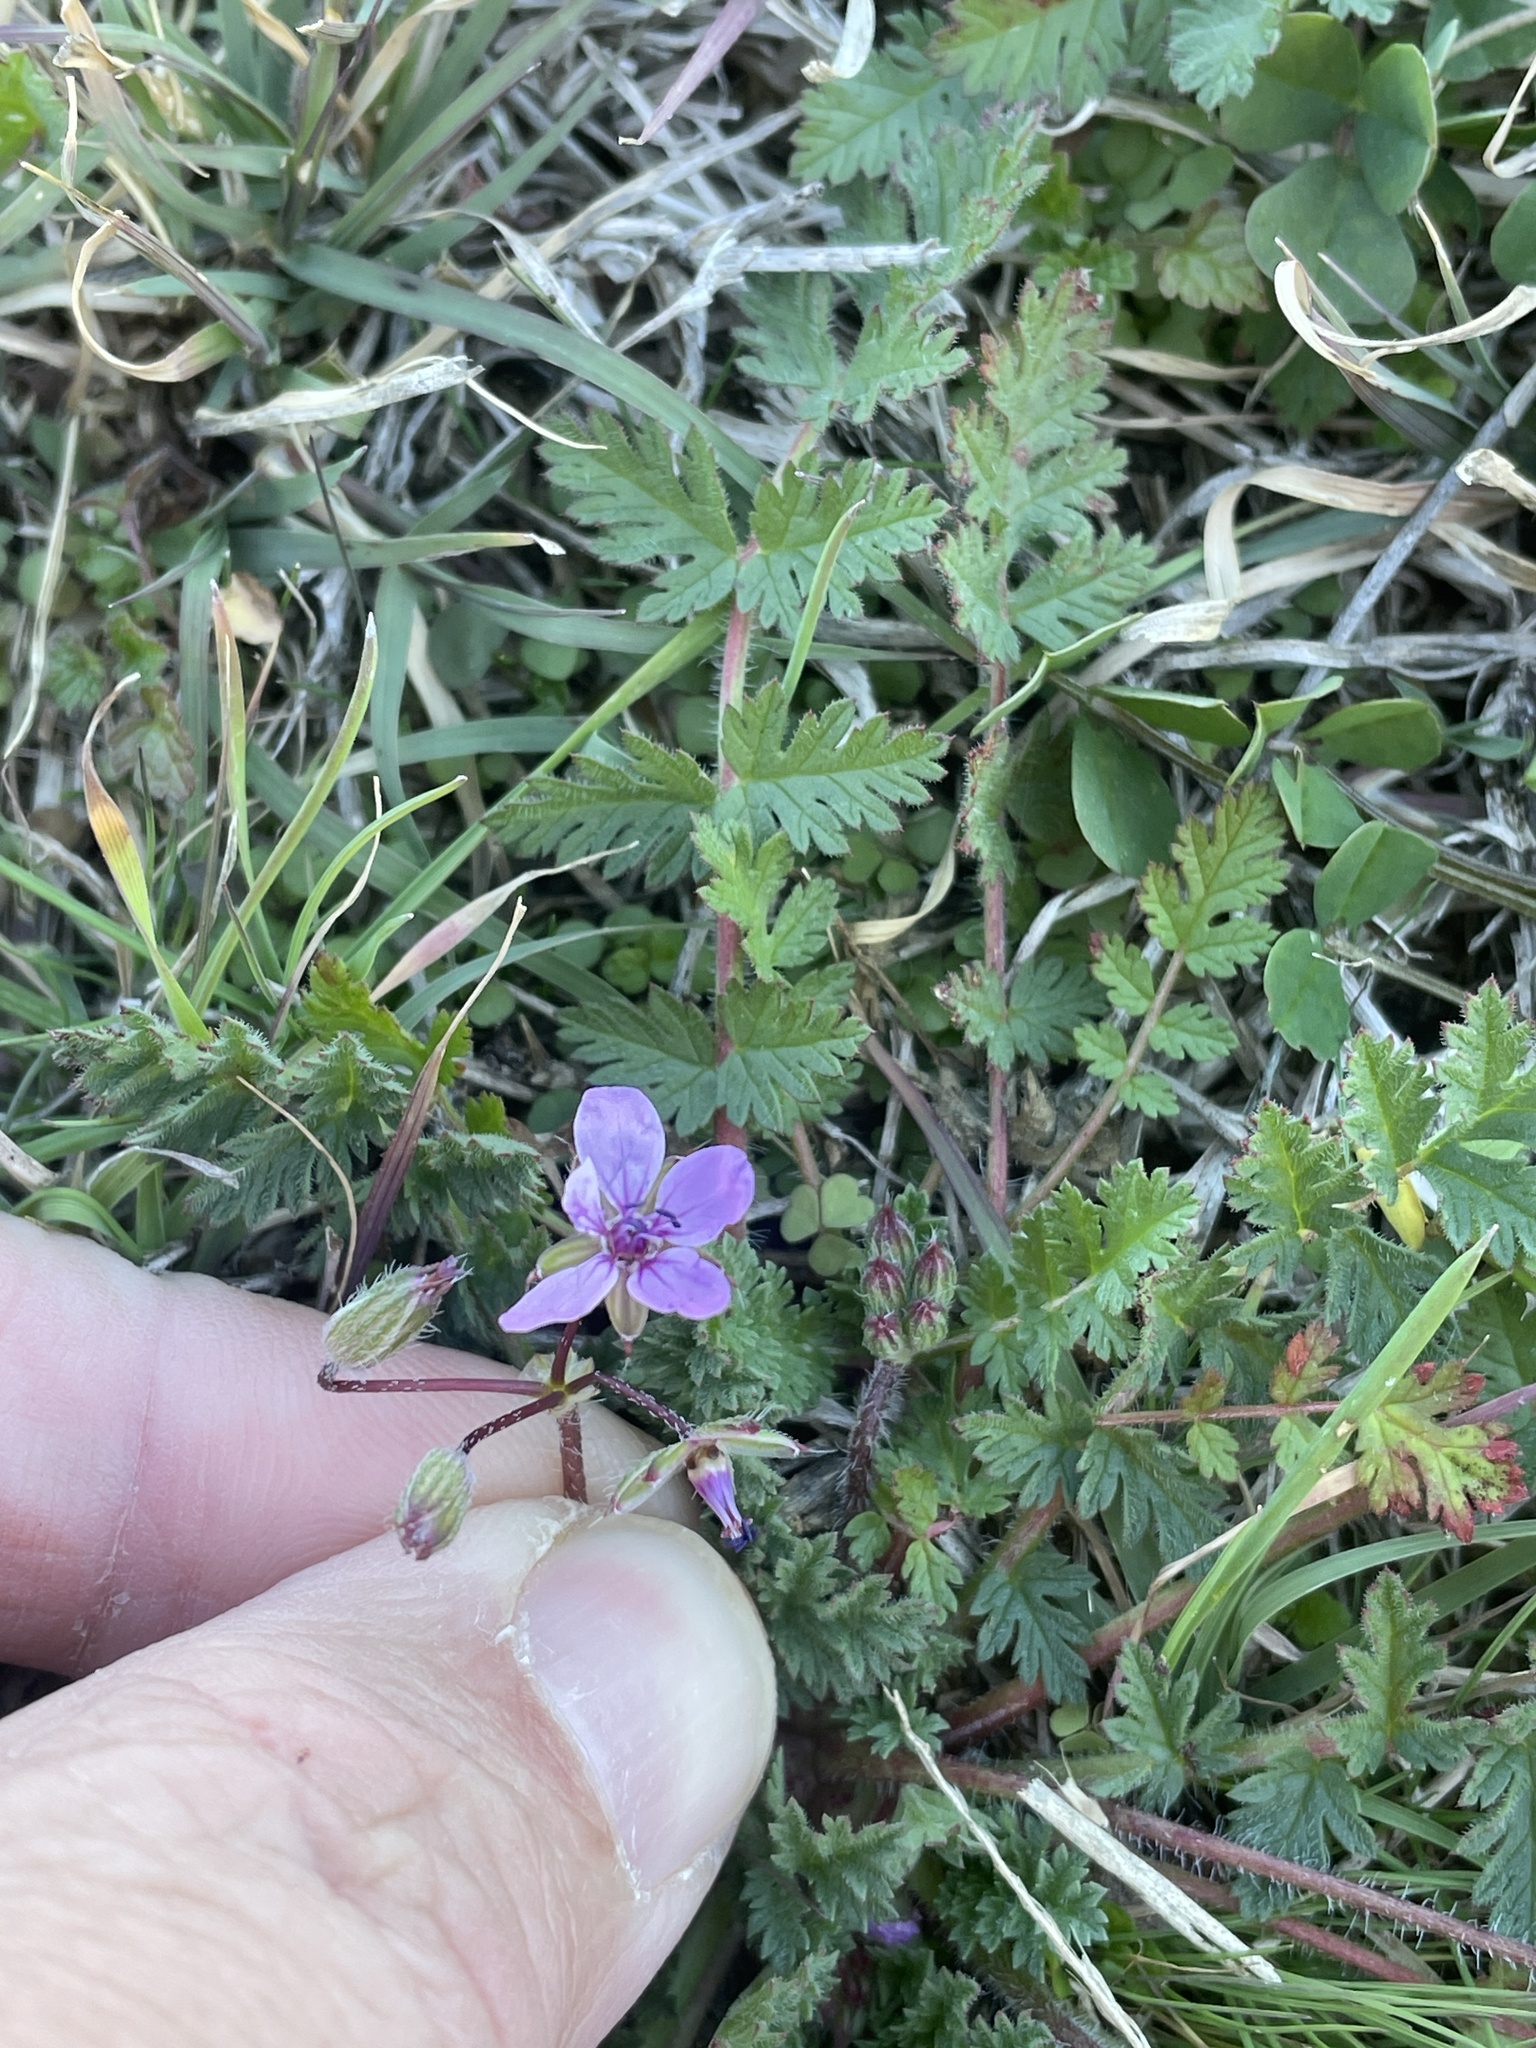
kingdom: Plantae
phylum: Tracheophyta
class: Magnoliopsida
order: Geraniales
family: Geraniaceae
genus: Erodium
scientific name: Erodium cicutarium
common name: Common stork's-bill
